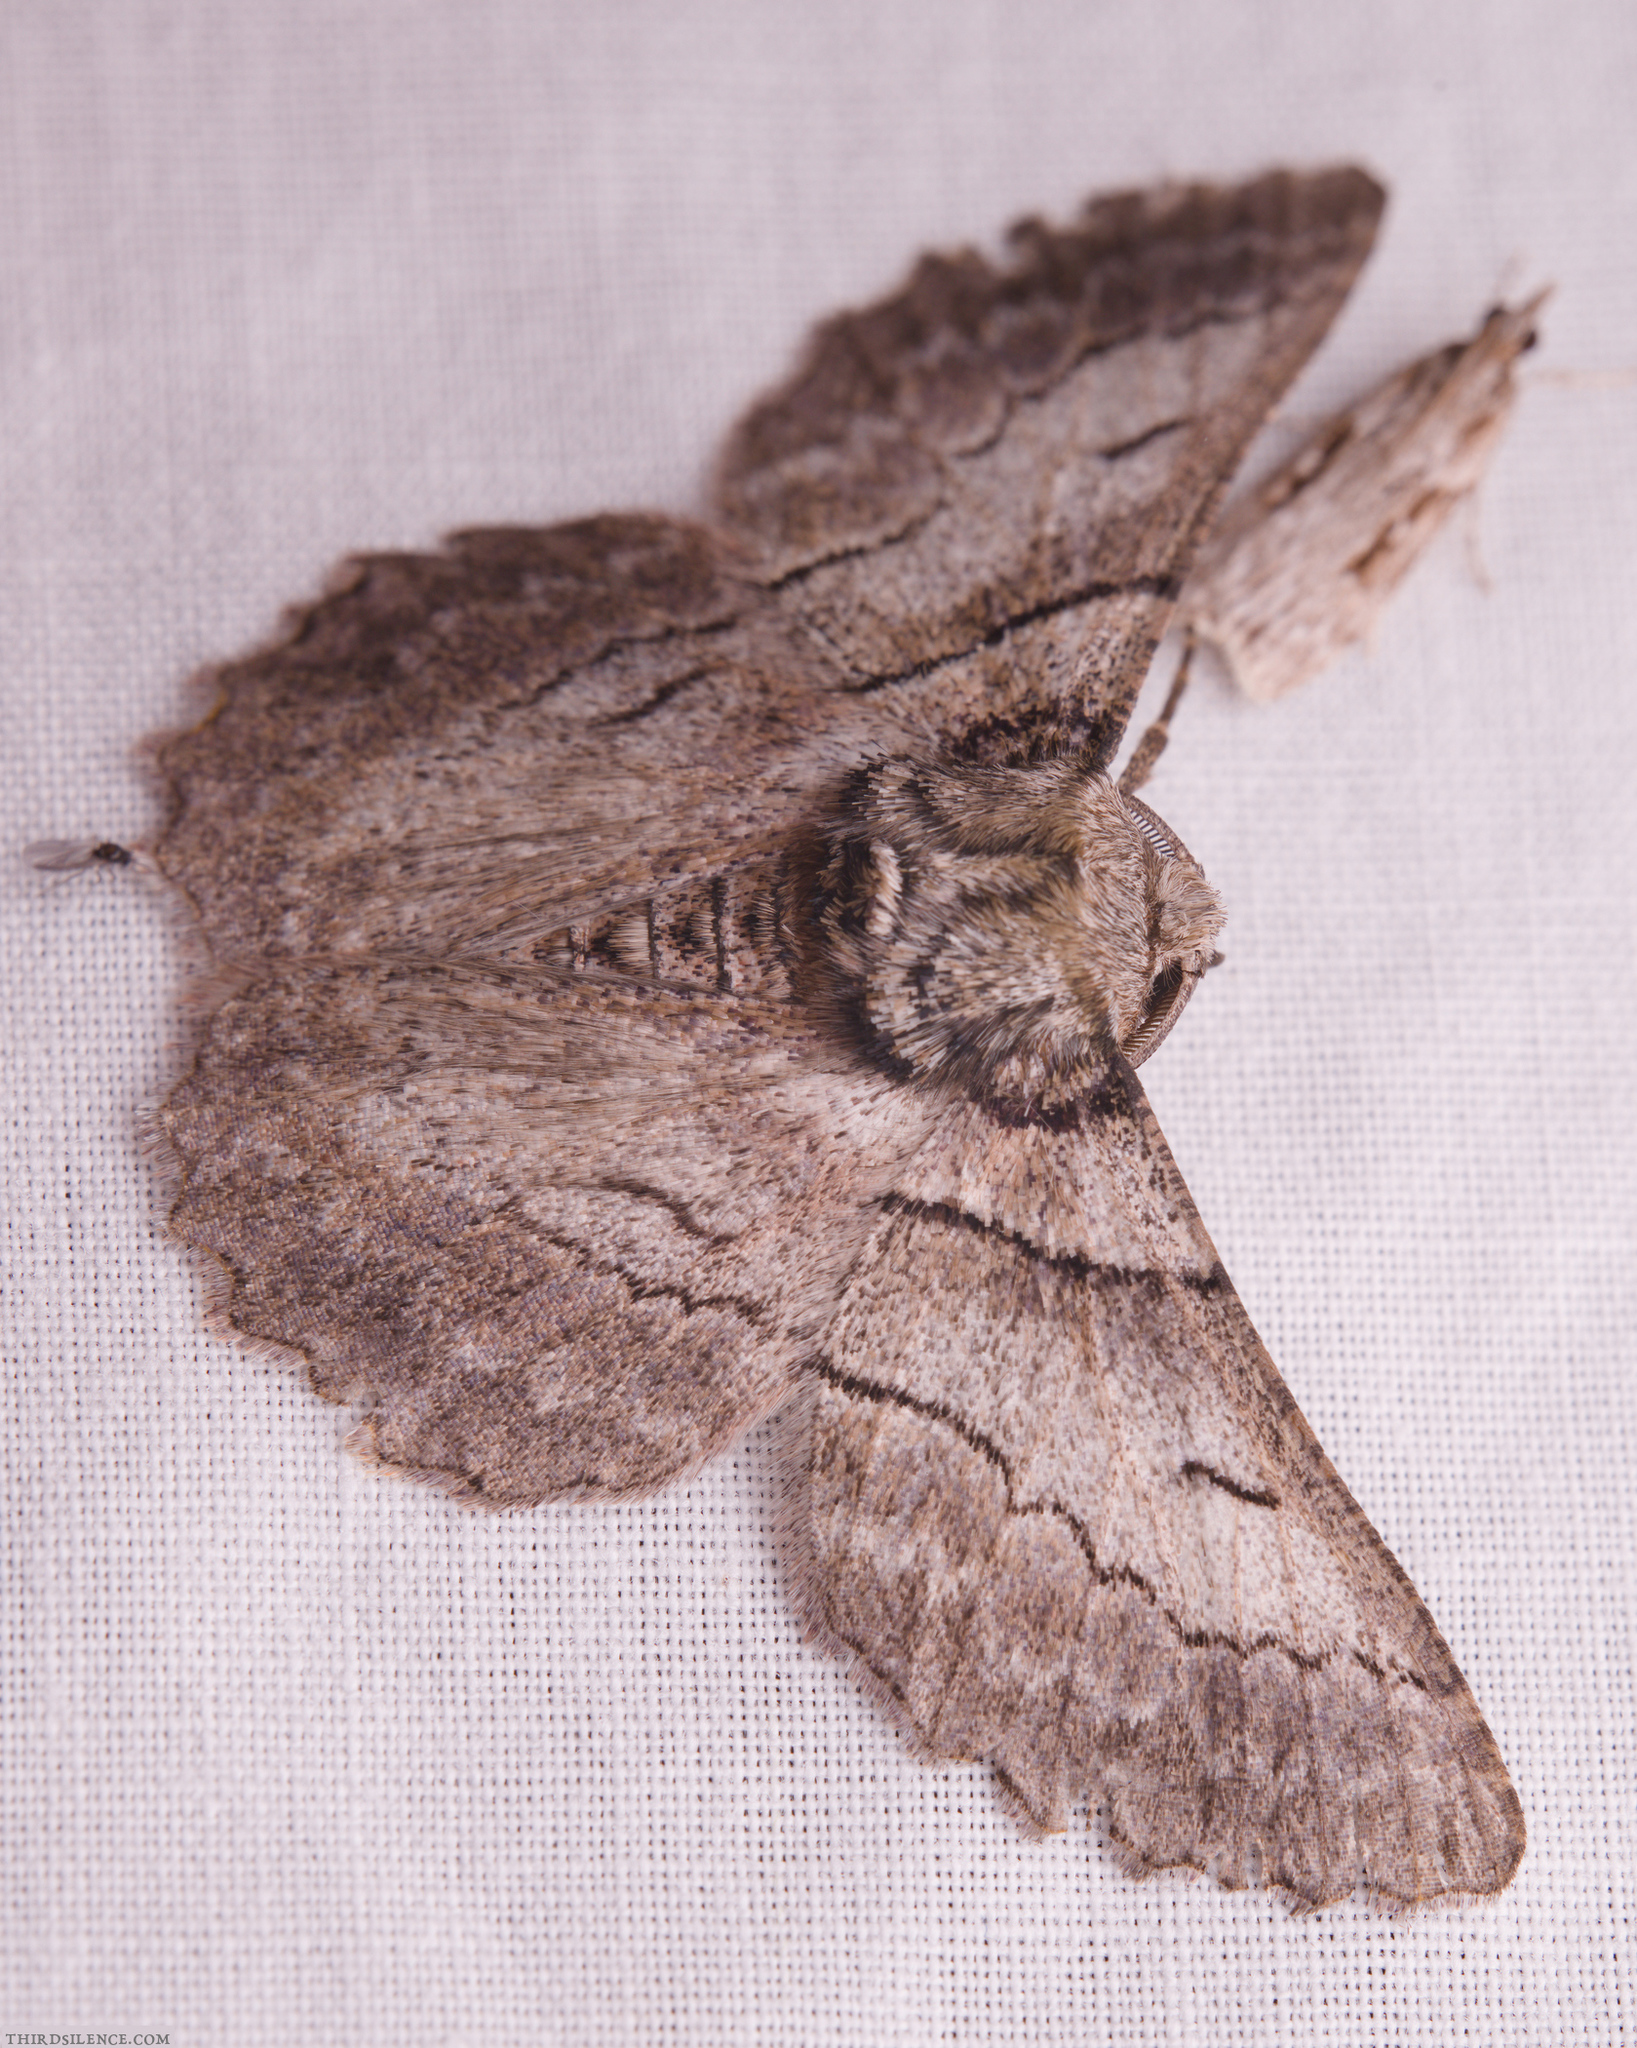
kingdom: Animalia
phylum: Arthropoda
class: Insecta
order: Lepidoptera
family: Geometridae
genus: Hypobapta
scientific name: Hypobapta tachyhalotaria
